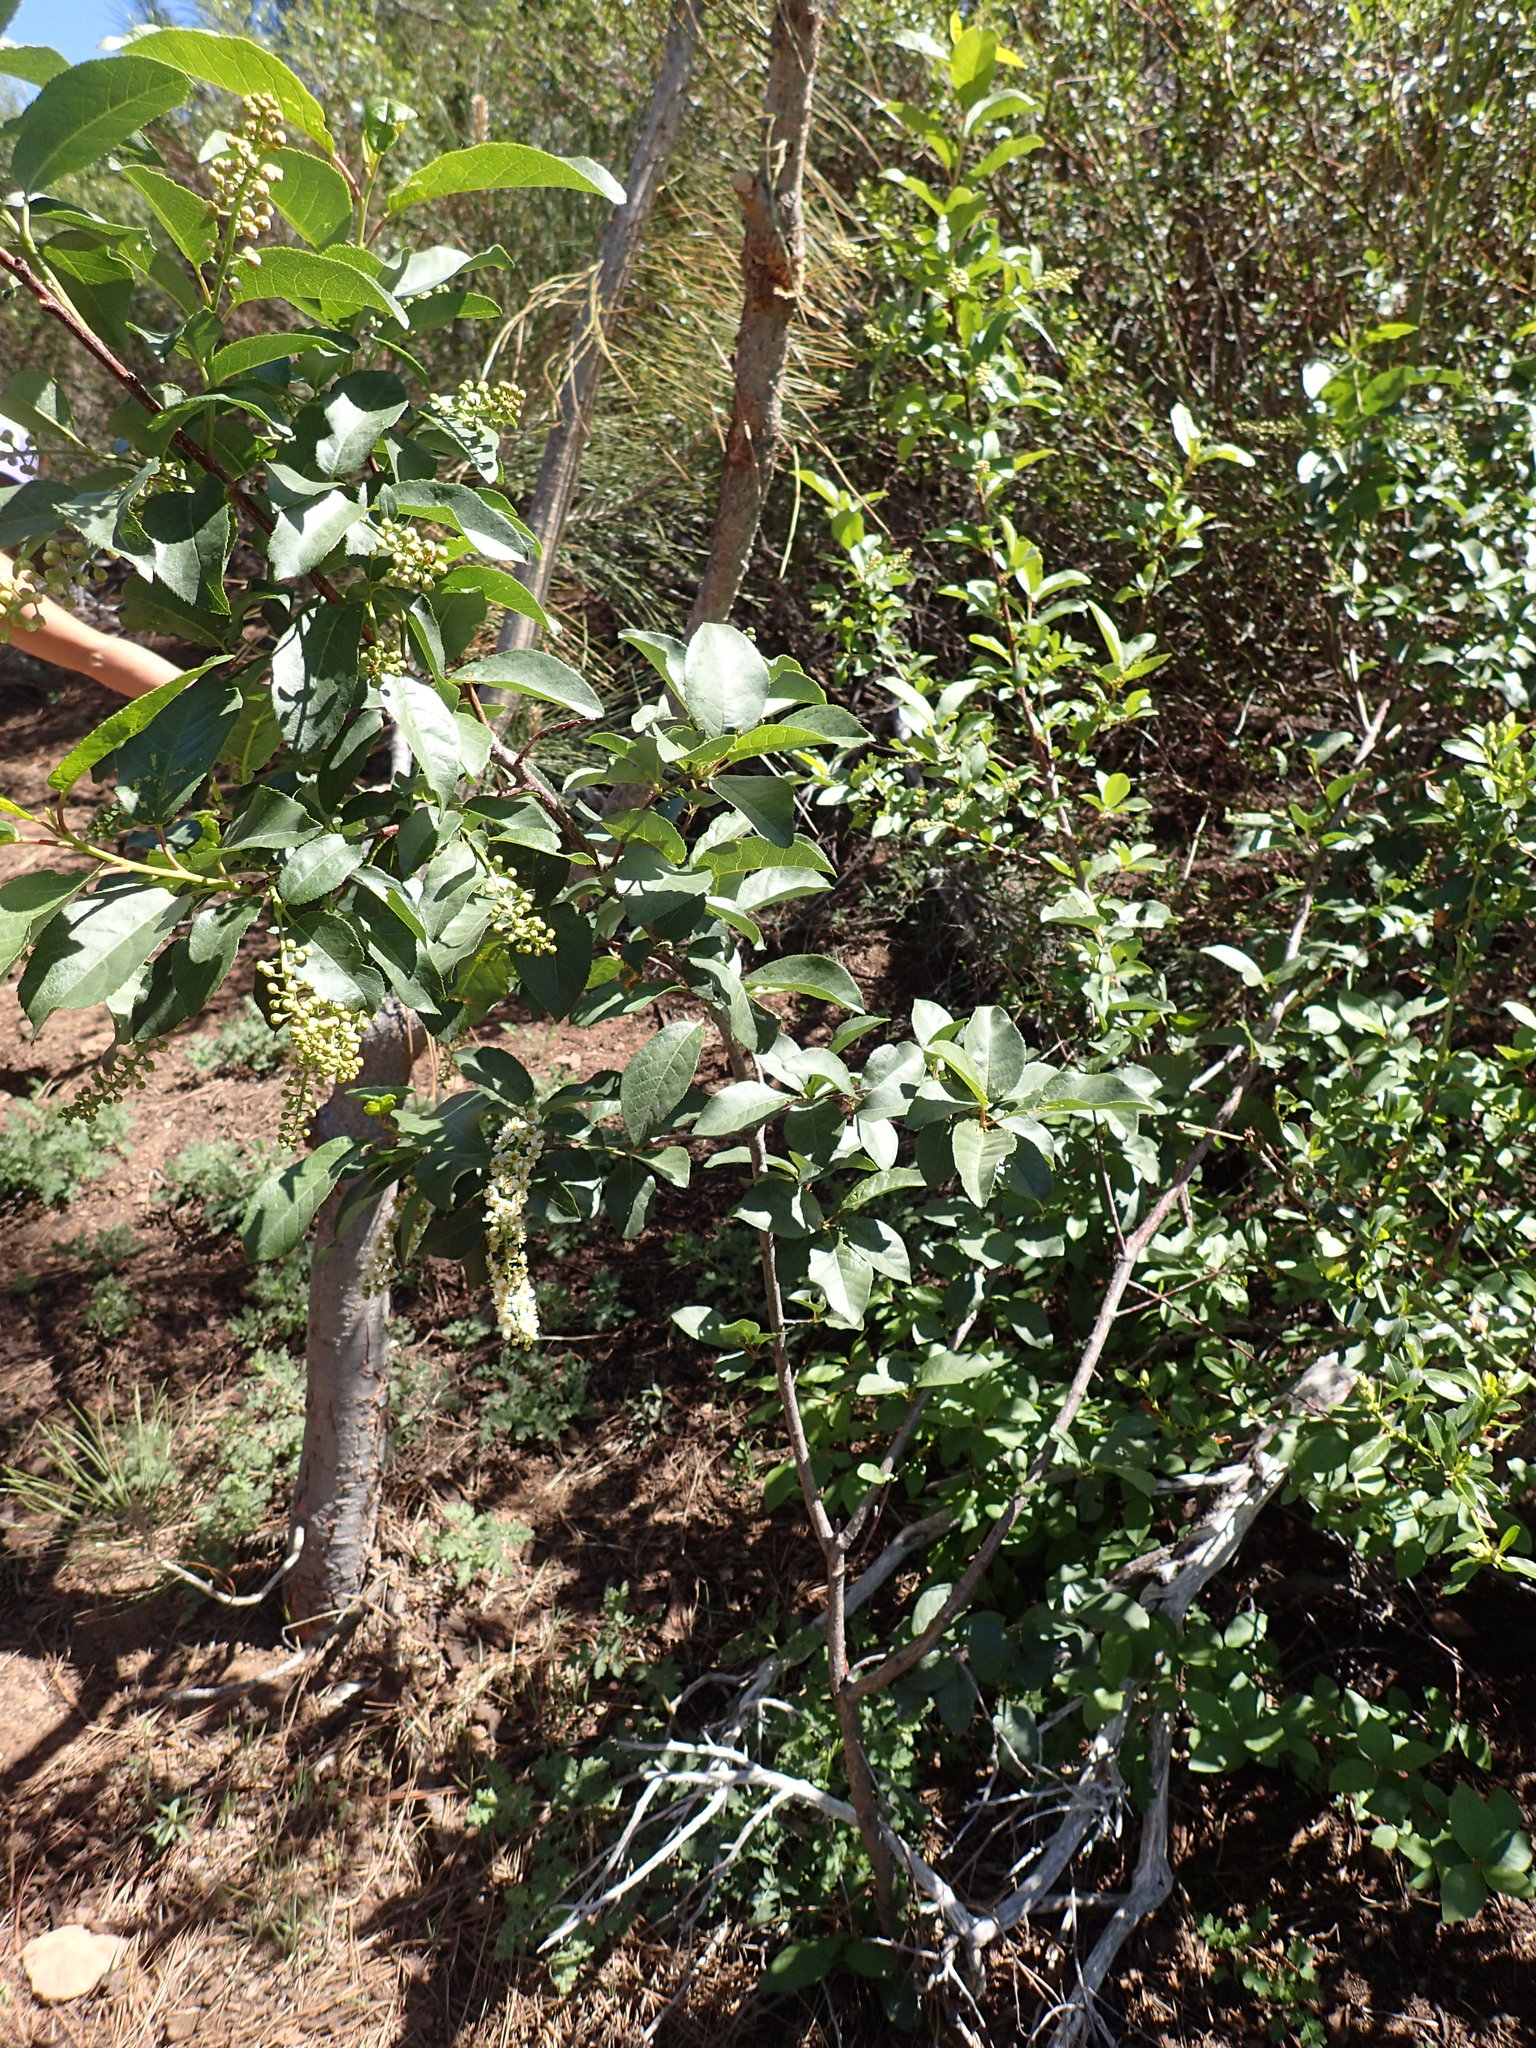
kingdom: Plantae
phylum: Tracheophyta
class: Magnoliopsida
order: Rosales
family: Rosaceae
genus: Prunus
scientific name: Prunus virginiana
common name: Chokecherry
